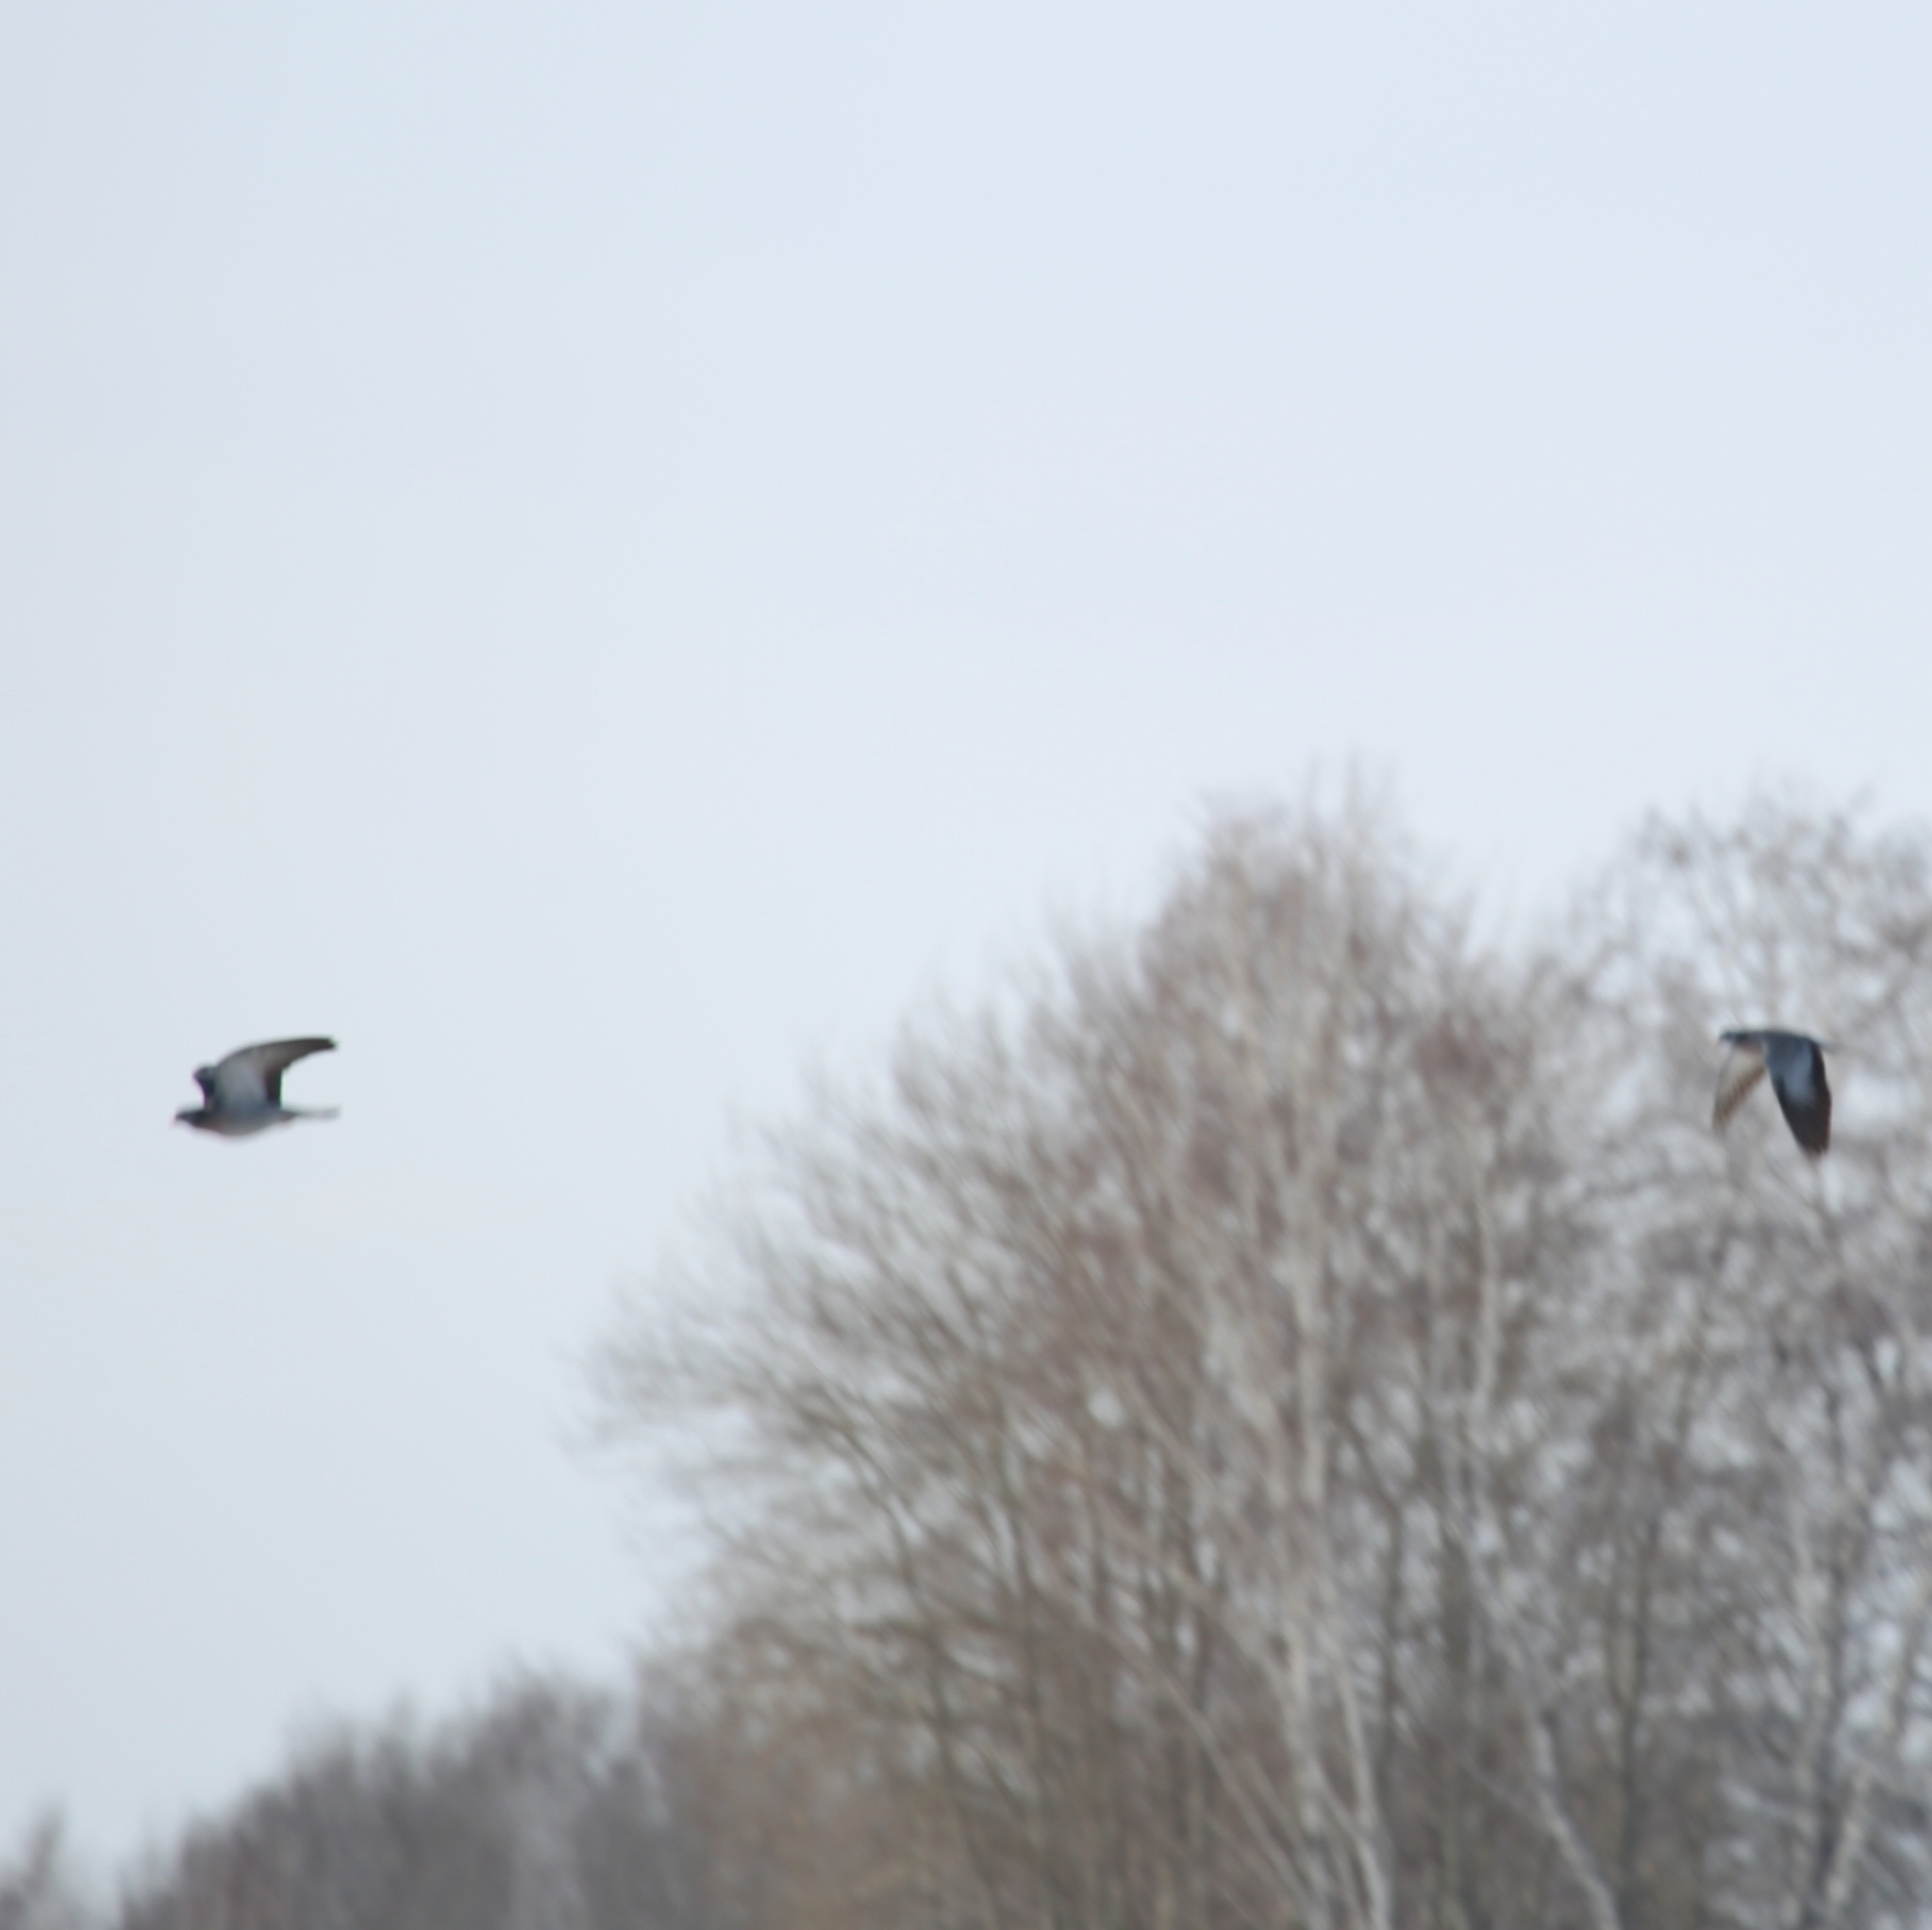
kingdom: Animalia
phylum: Chordata
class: Aves
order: Columbiformes
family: Columbidae
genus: Columba
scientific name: Columba oenas
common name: Stock dove
